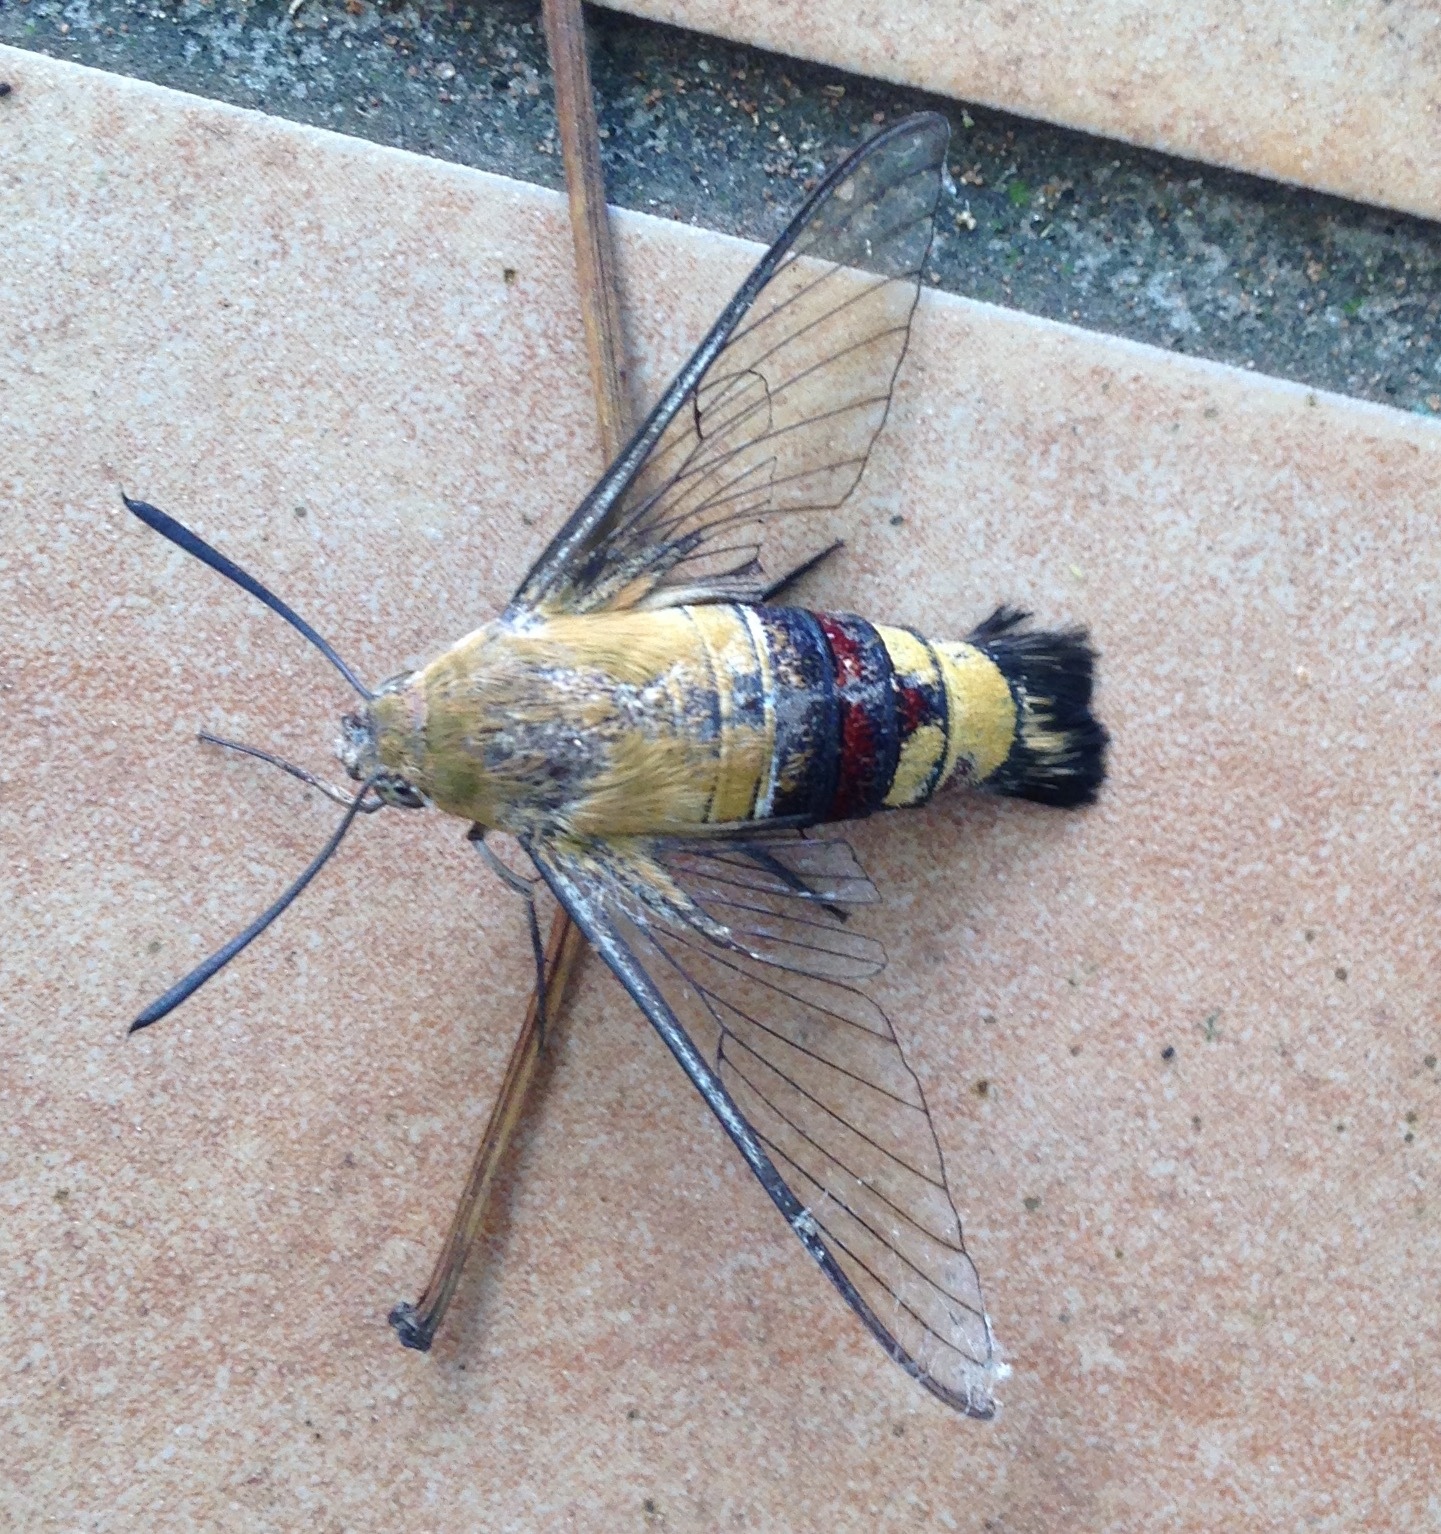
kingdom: Animalia
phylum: Arthropoda
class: Insecta
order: Lepidoptera
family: Sphingidae
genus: Cephonodes
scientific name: Cephonodes hylas
